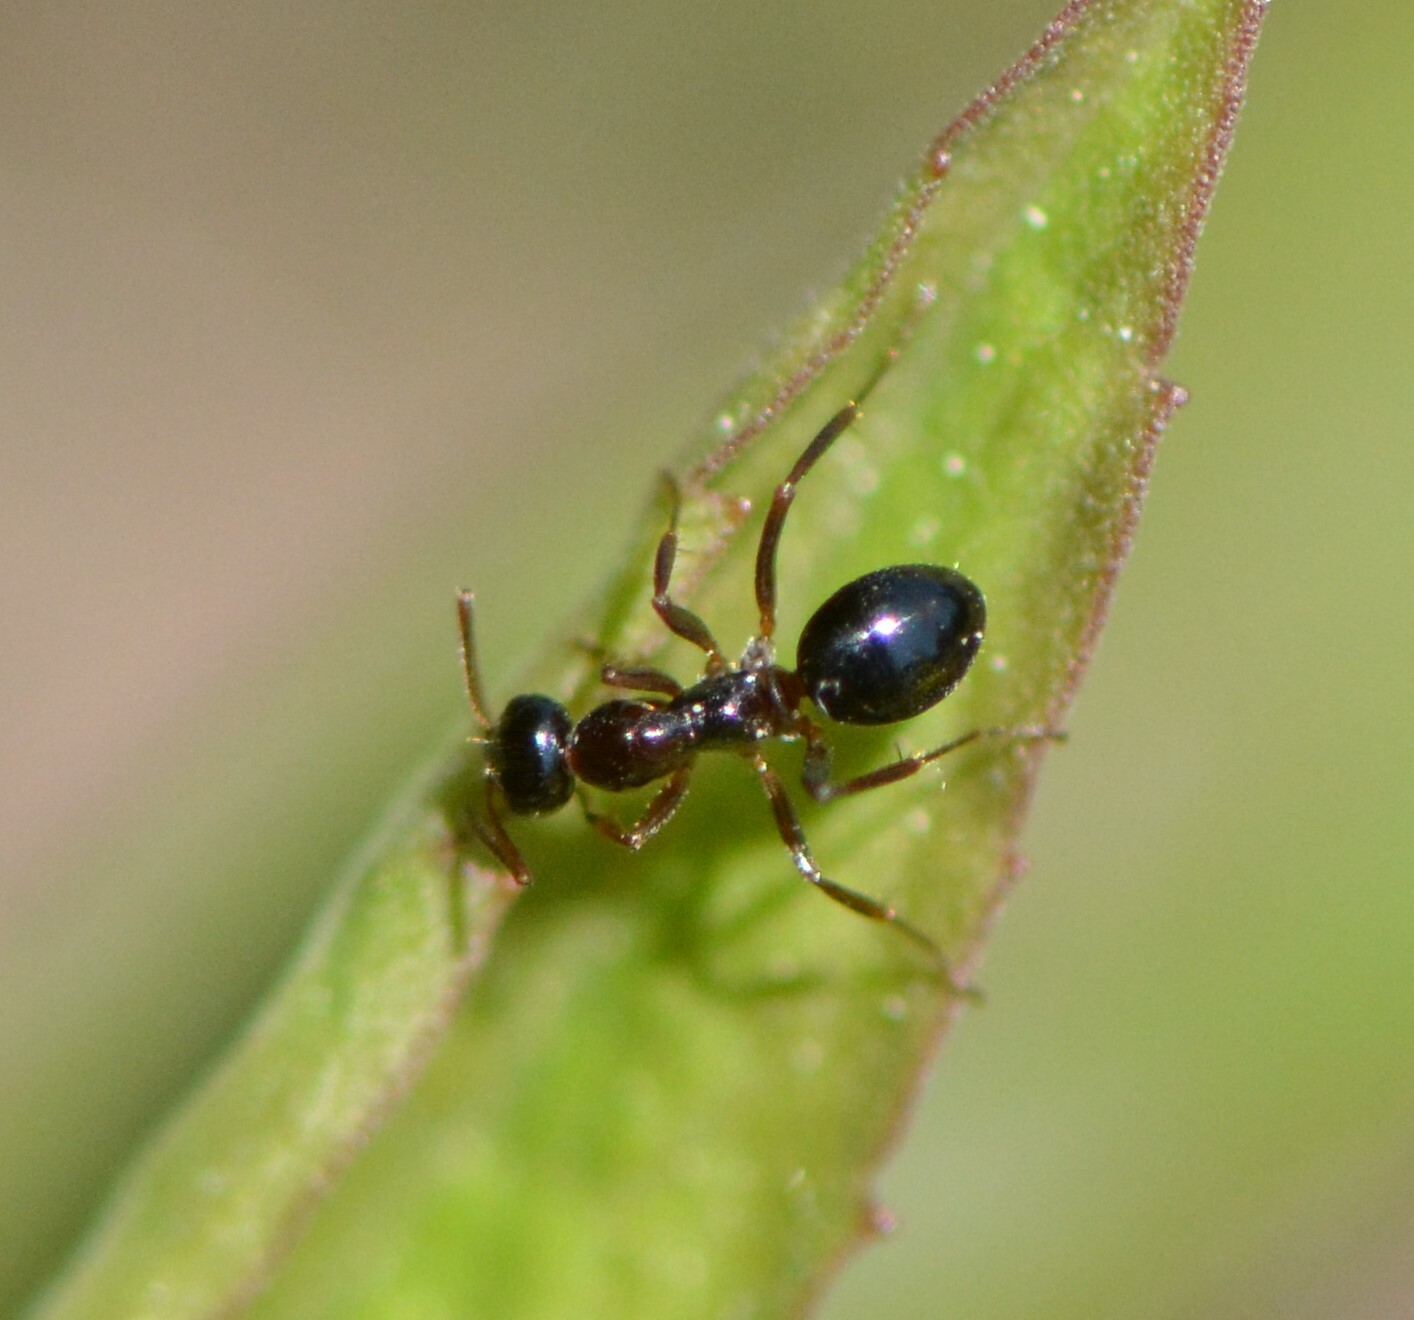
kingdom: Animalia
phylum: Arthropoda
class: Insecta
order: Hymenoptera
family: Formicidae
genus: Formica
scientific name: Formica
